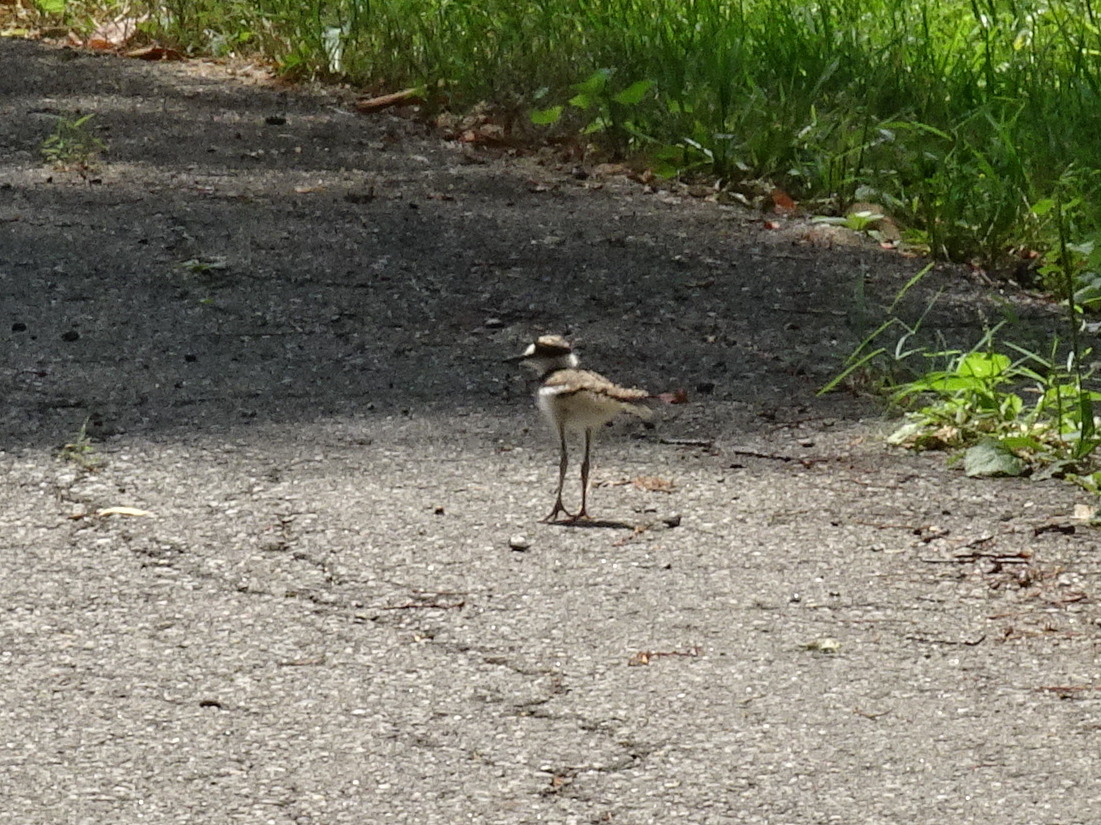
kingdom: Animalia
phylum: Chordata
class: Aves
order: Charadriiformes
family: Charadriidae
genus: Charadrius
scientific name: Charadrius vociferus
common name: Killdeer
